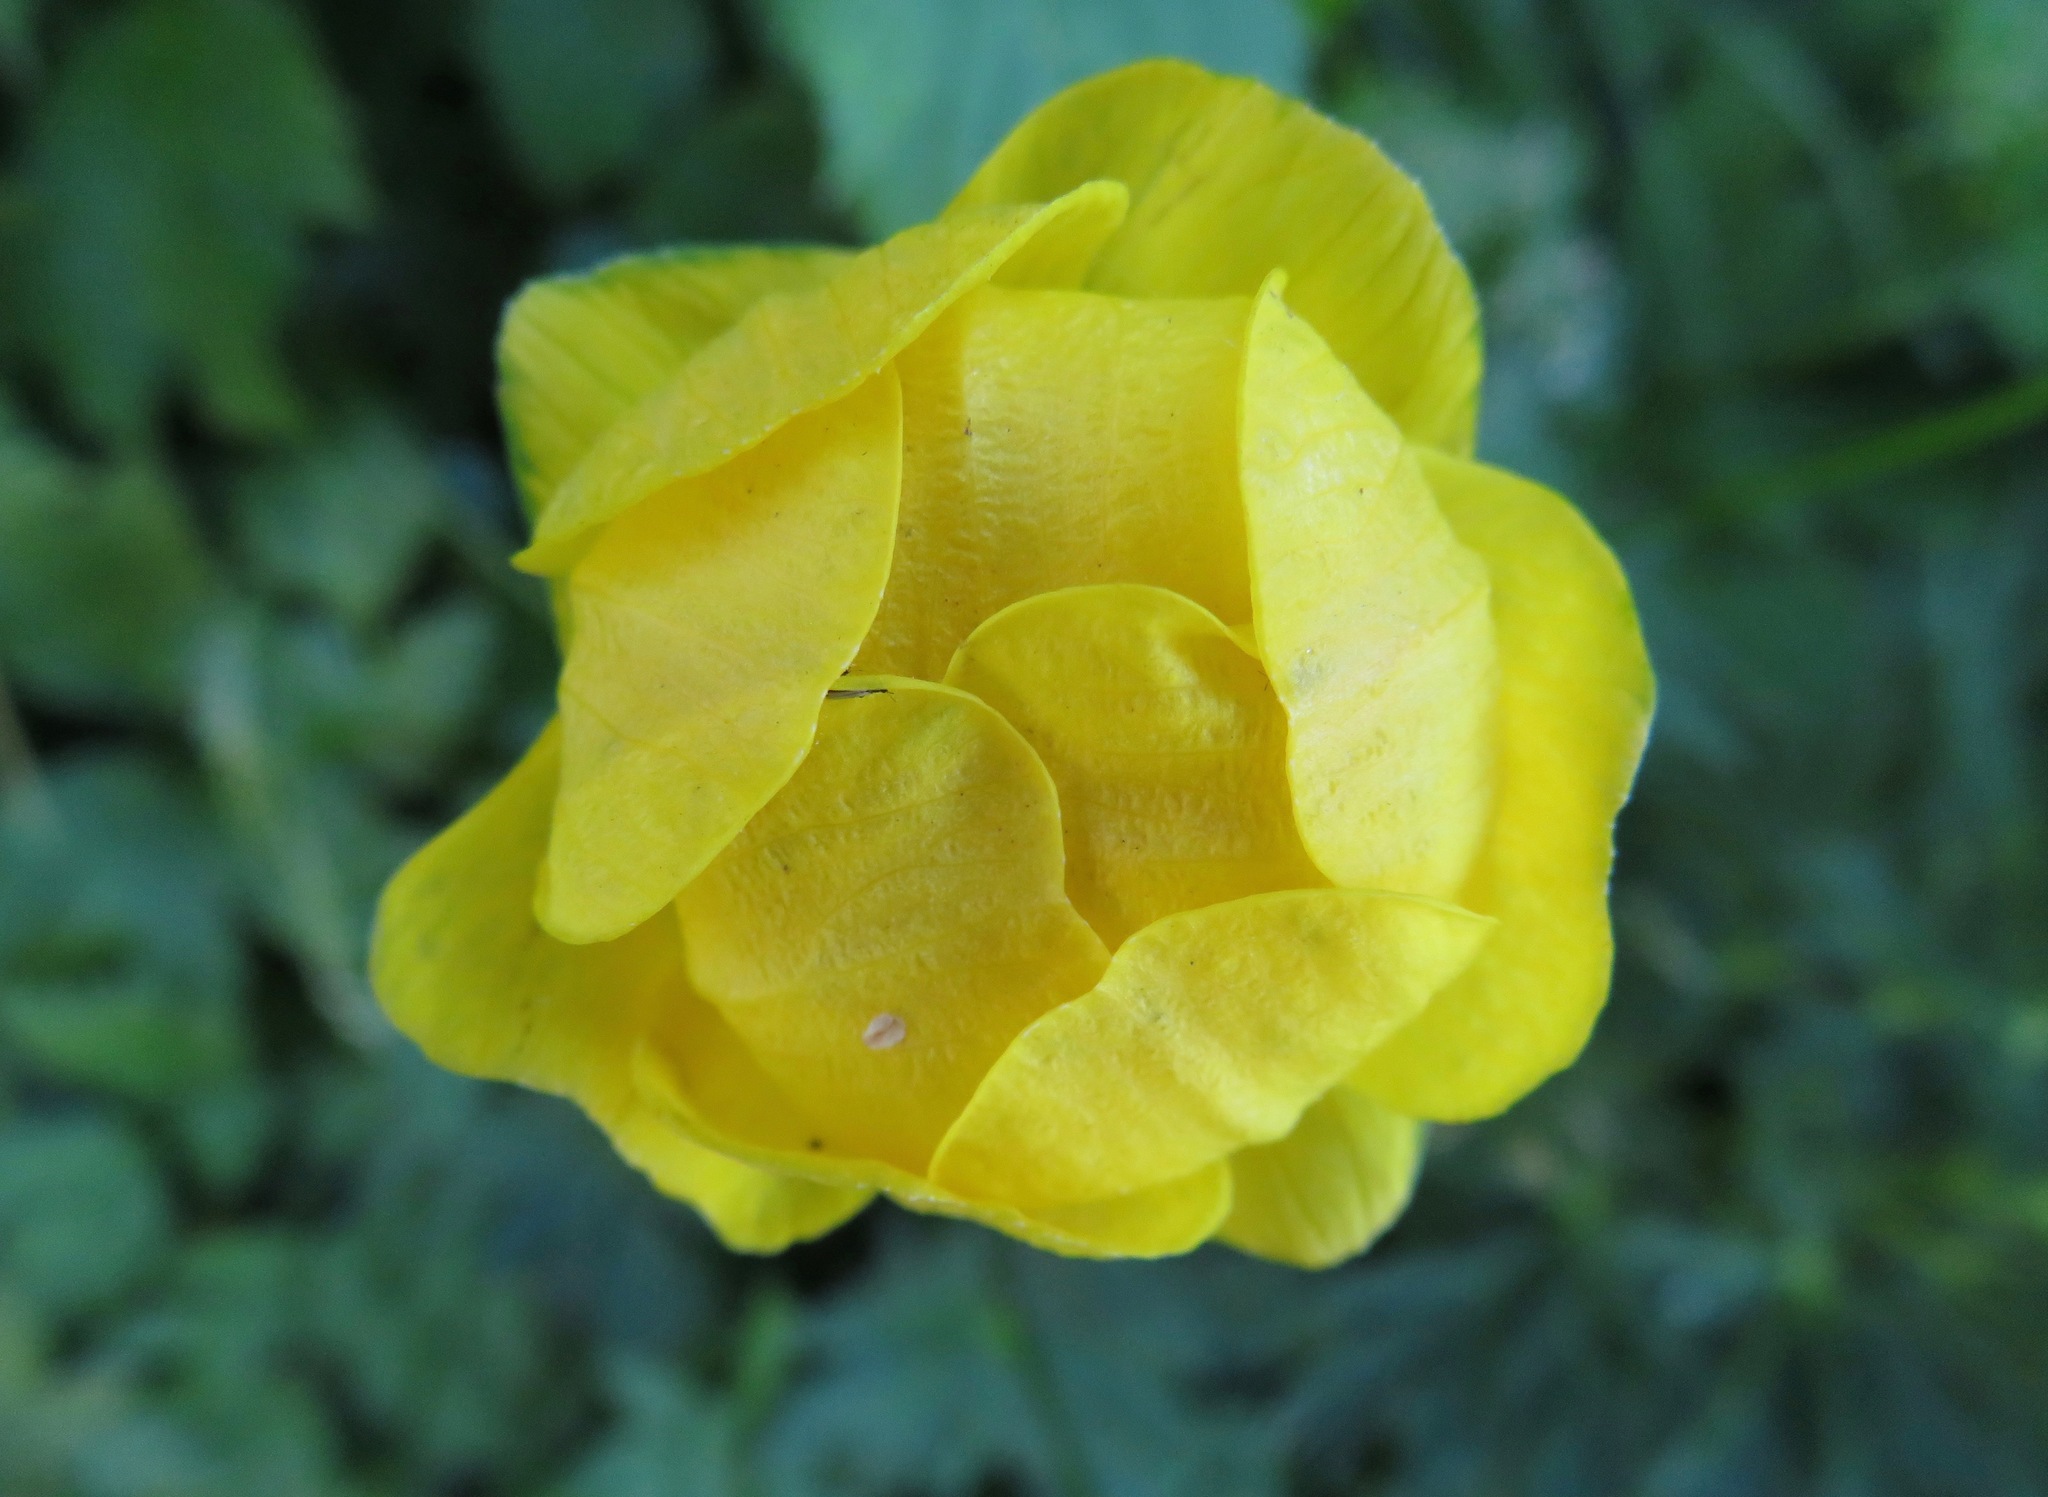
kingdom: Plantae
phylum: Tracheophyta
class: Magnoliopsida
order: Ranunculales
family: Ranunculaceae
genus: Trollius
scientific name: Trollius europaeus
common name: European globeflower
